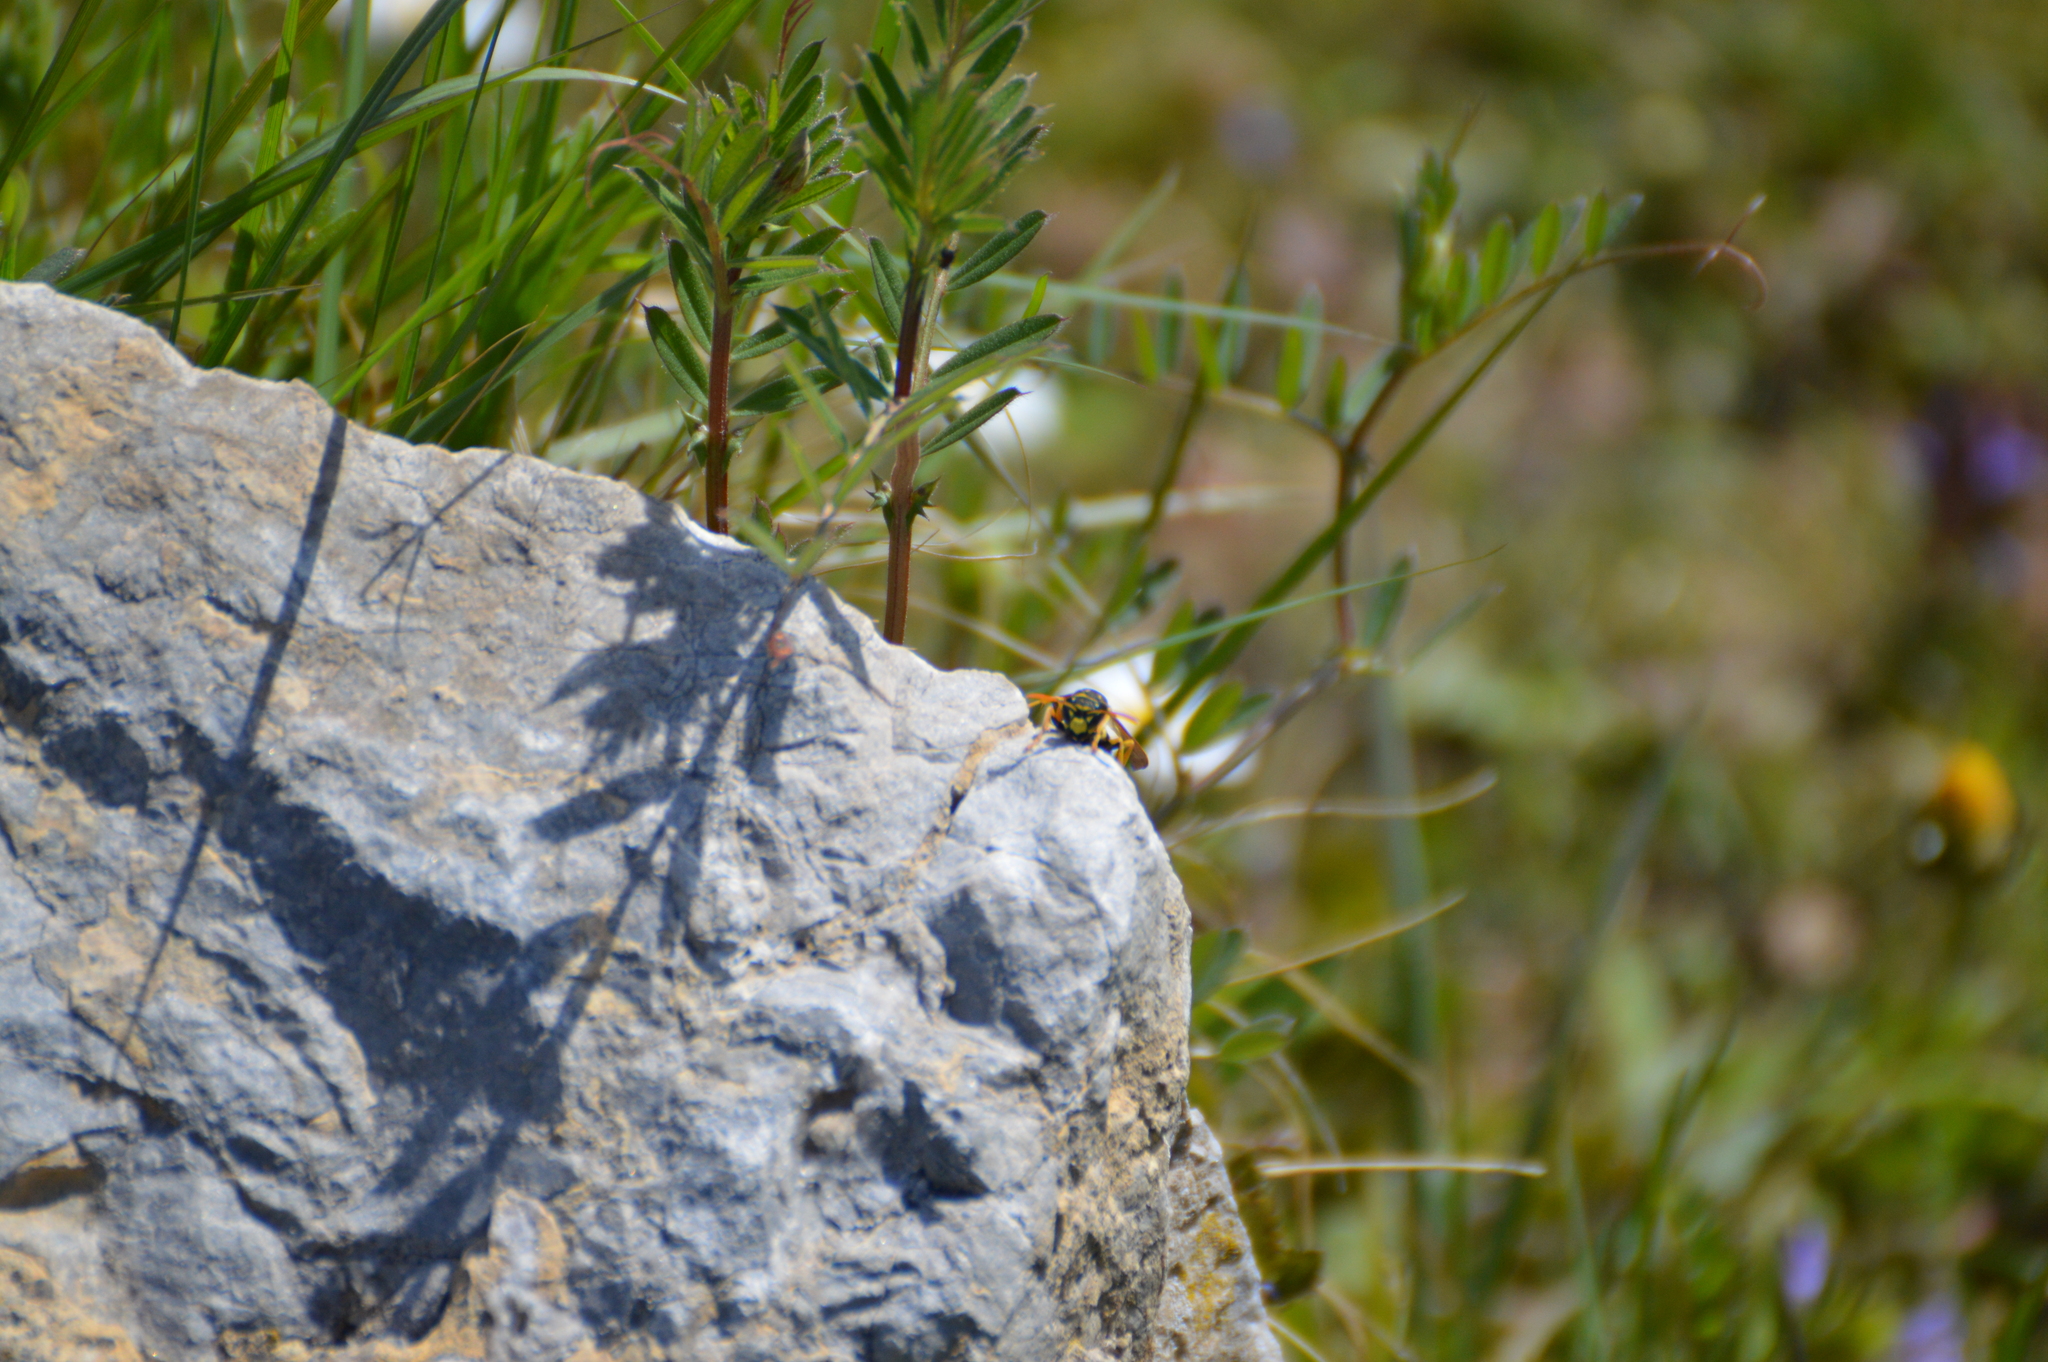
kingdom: Animalia
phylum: Arthropoda
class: Insecta
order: Hymenoptera
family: Eumenidae
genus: Polistes
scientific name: Polistes dominula
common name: Paper wasp
